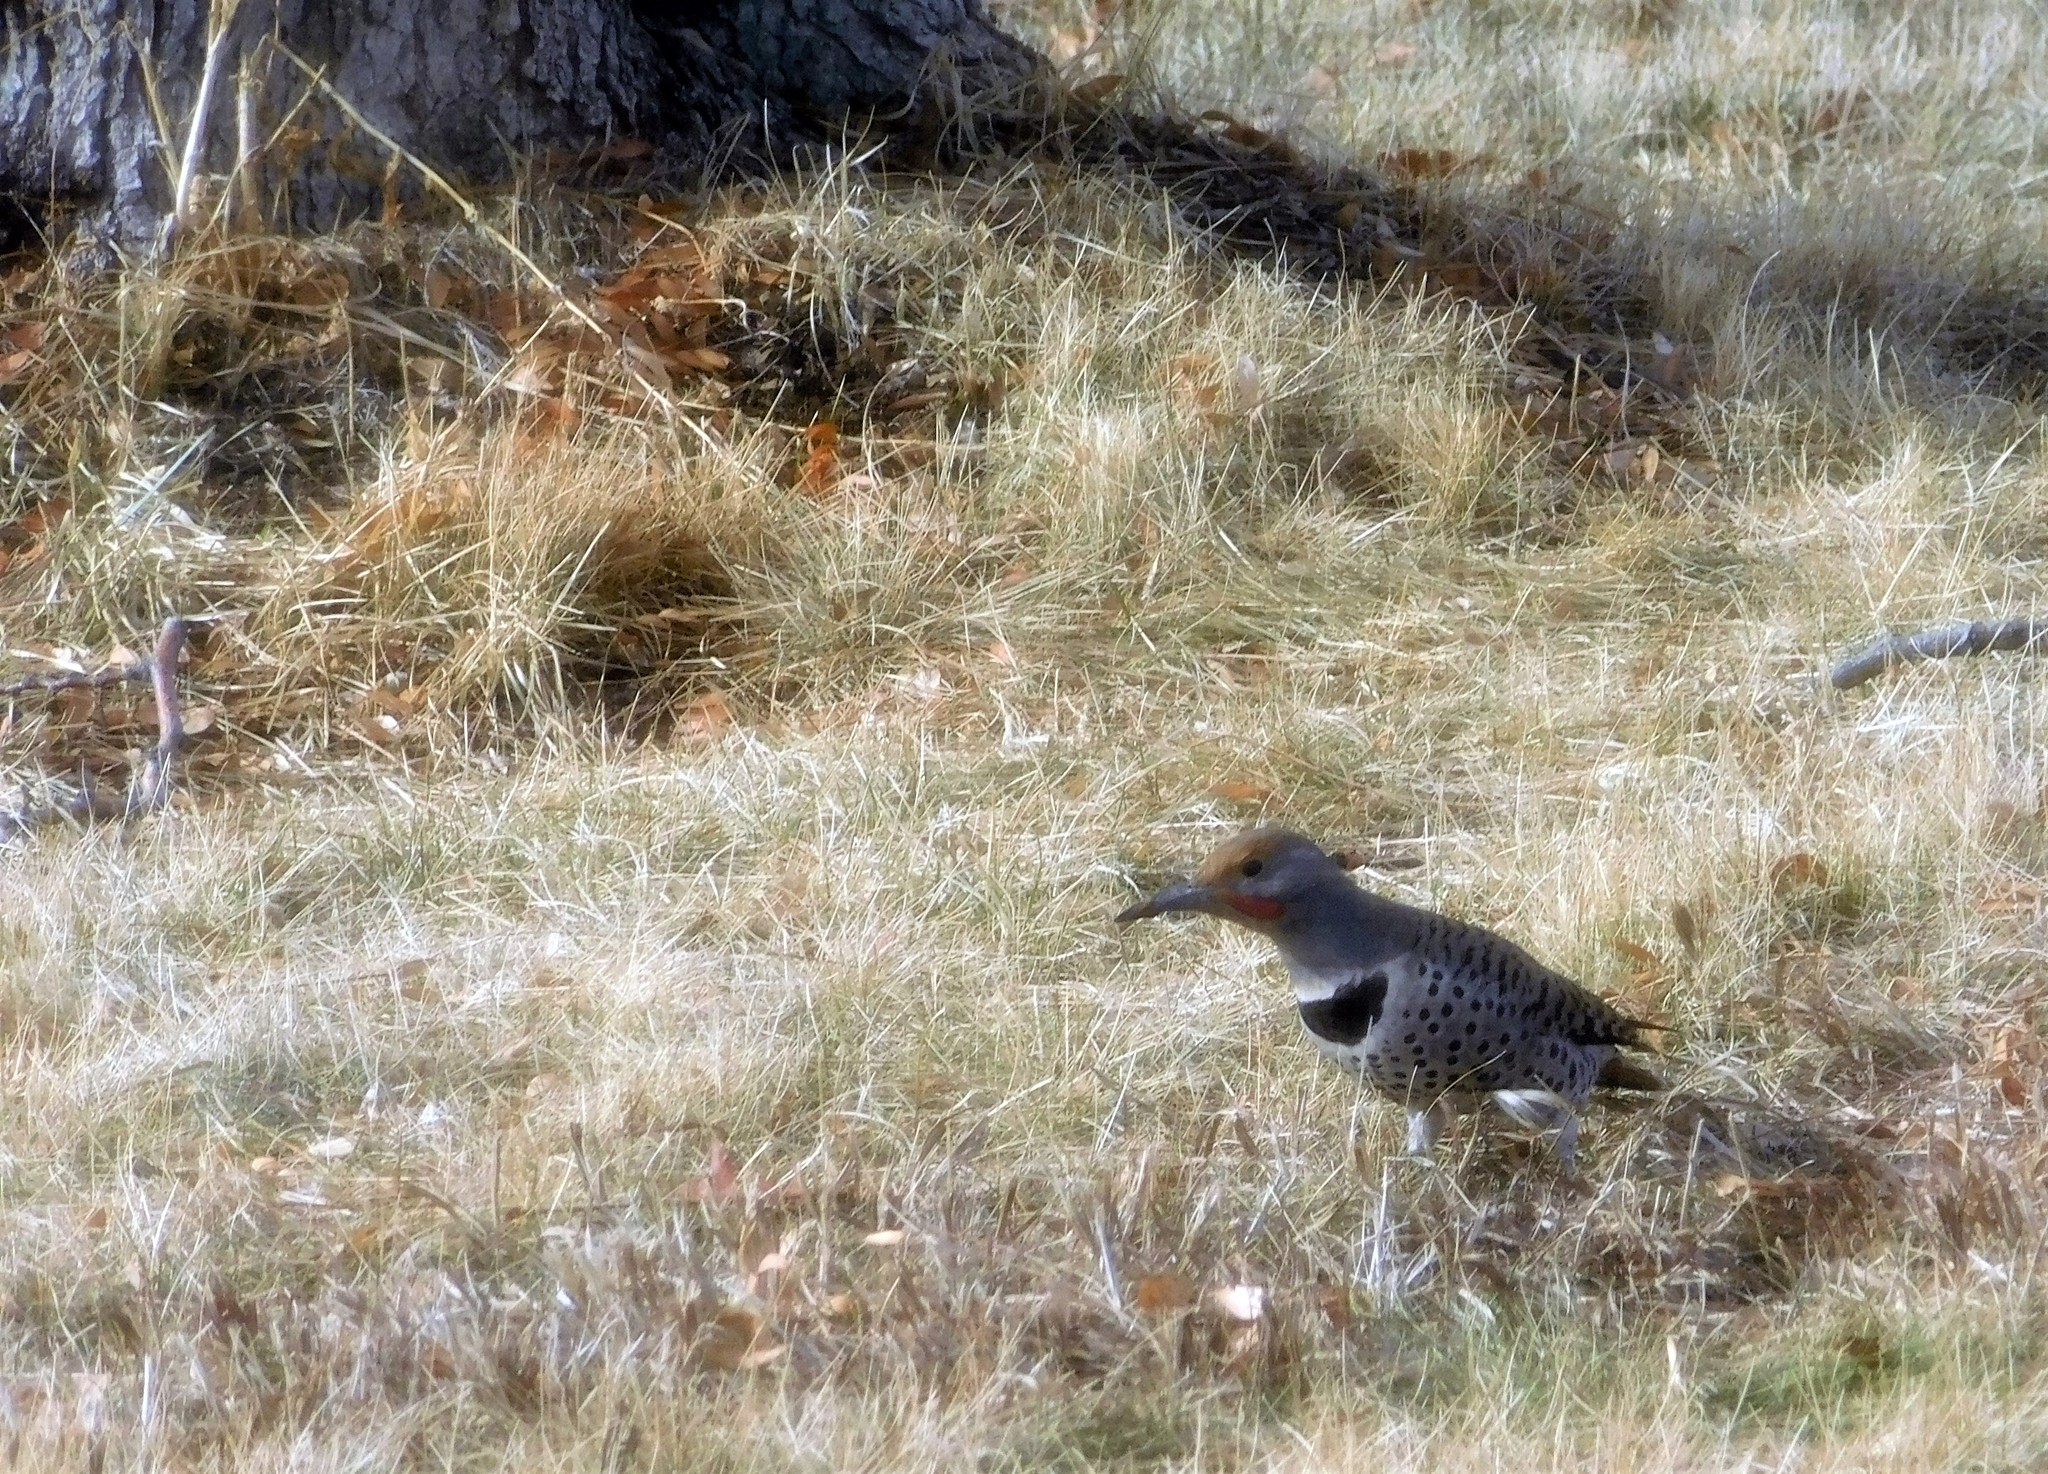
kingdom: Animalia
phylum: Chordata
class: Aves
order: Piciformes
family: Picidae
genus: Colaptes
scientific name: Colaptes auratus
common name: Northern flicker
